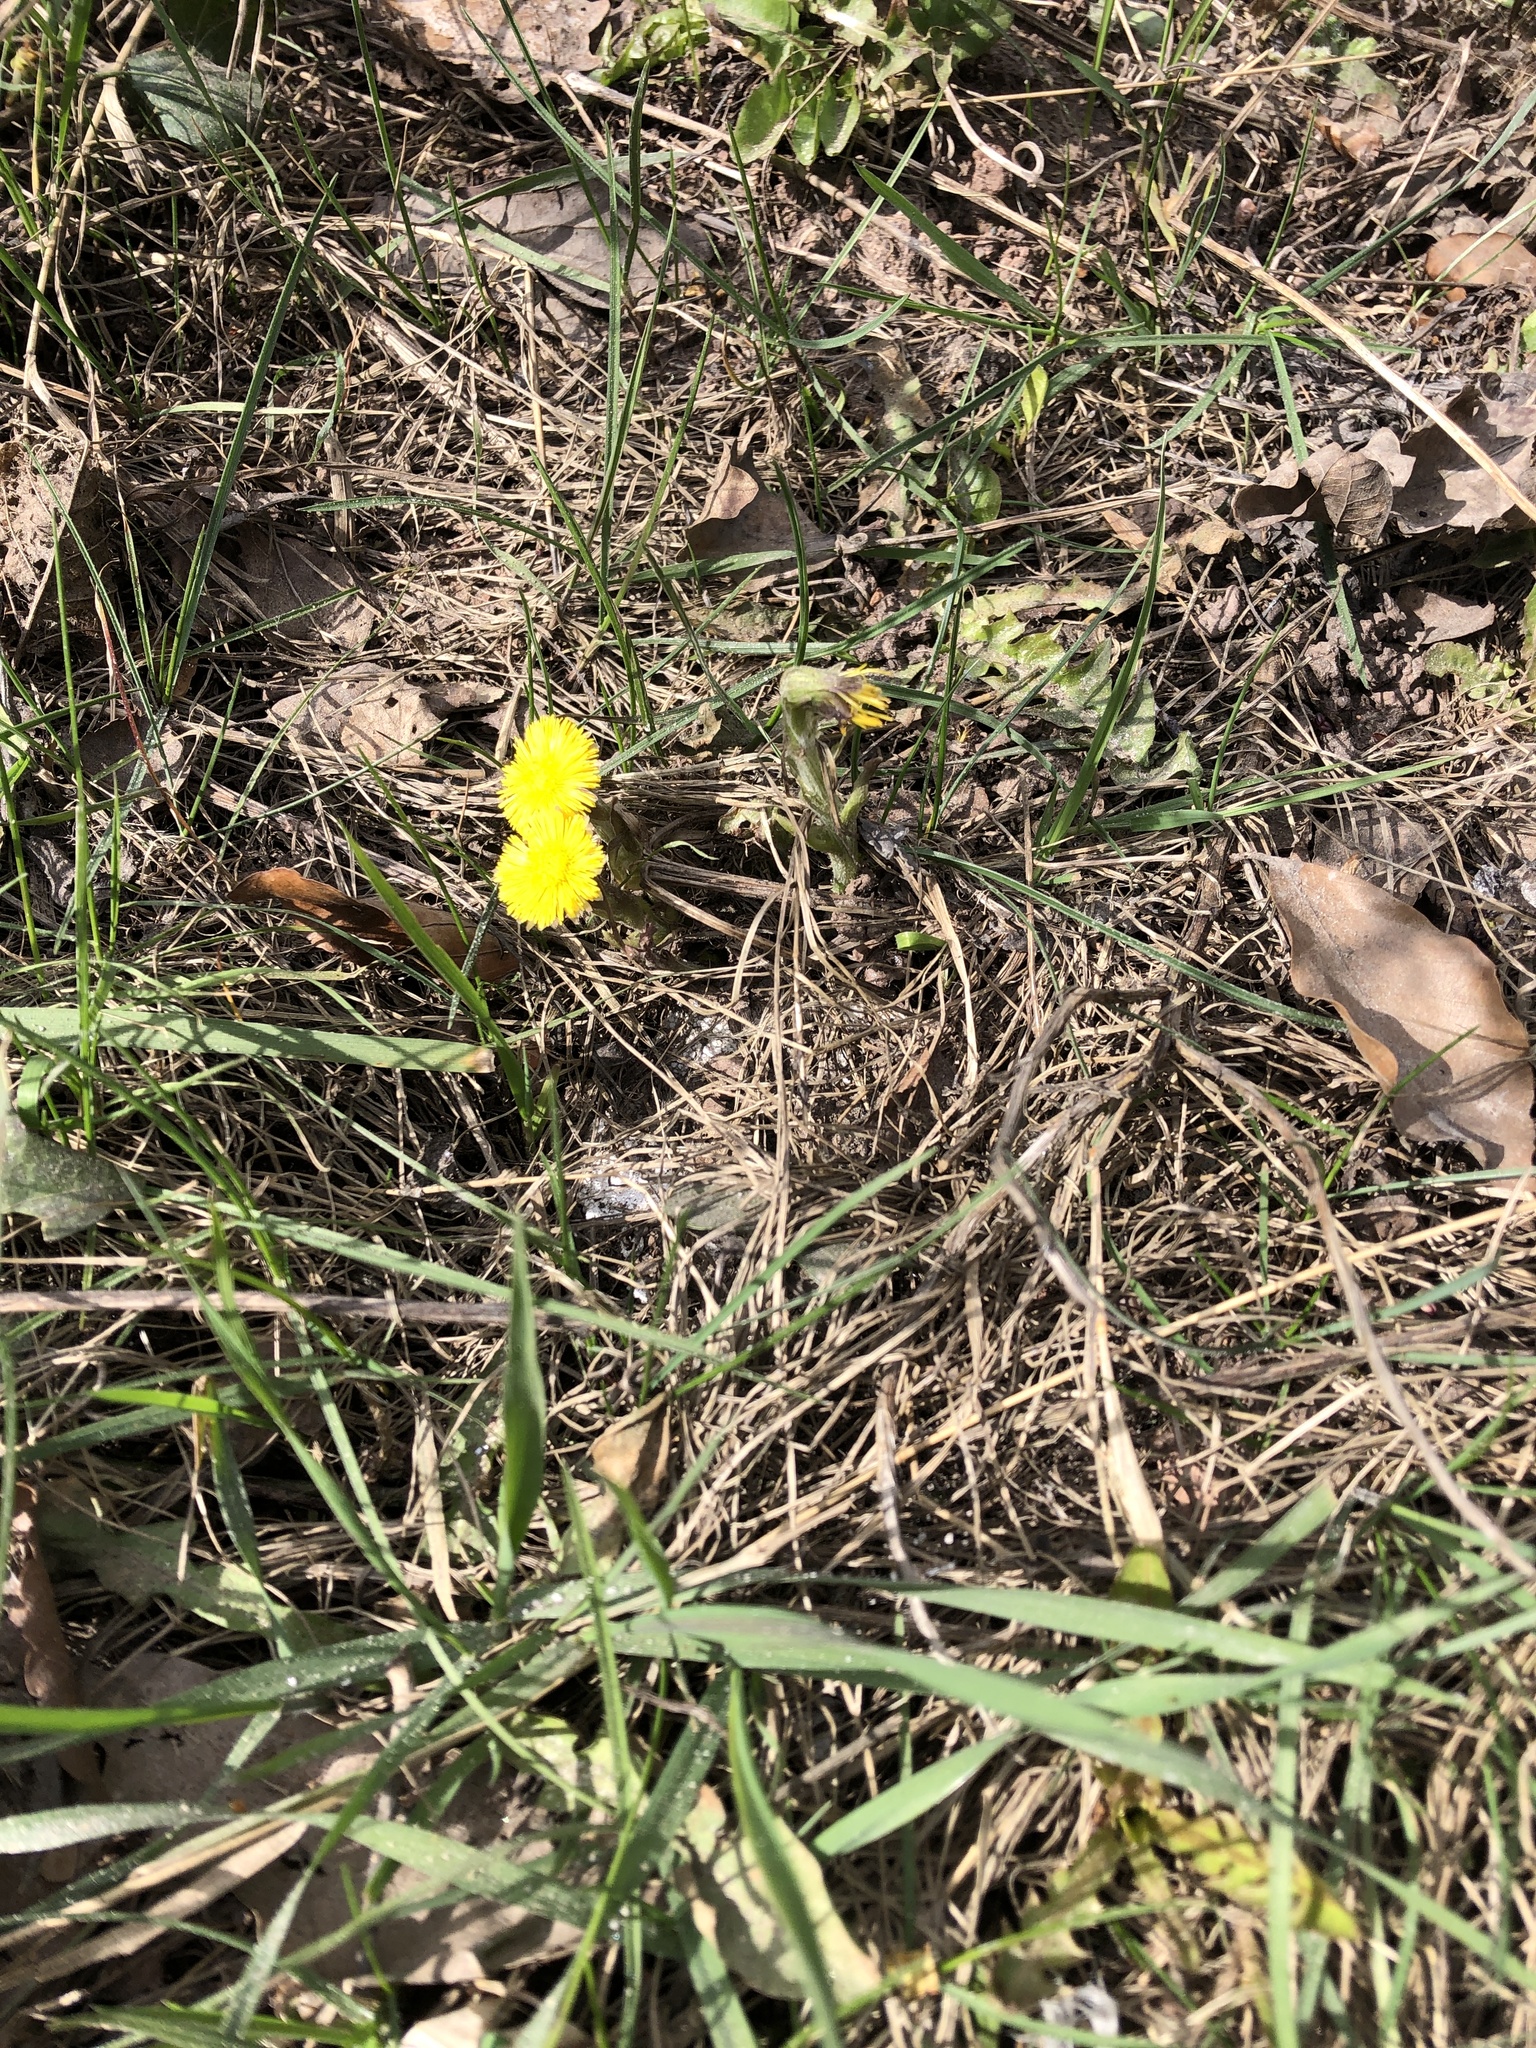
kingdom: Plantae
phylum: Tracheophyta
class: Magnoliopsida
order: Asterales
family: Asteraceae
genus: Tussilago
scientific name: Tussilago farfara
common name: Coltsfoot
